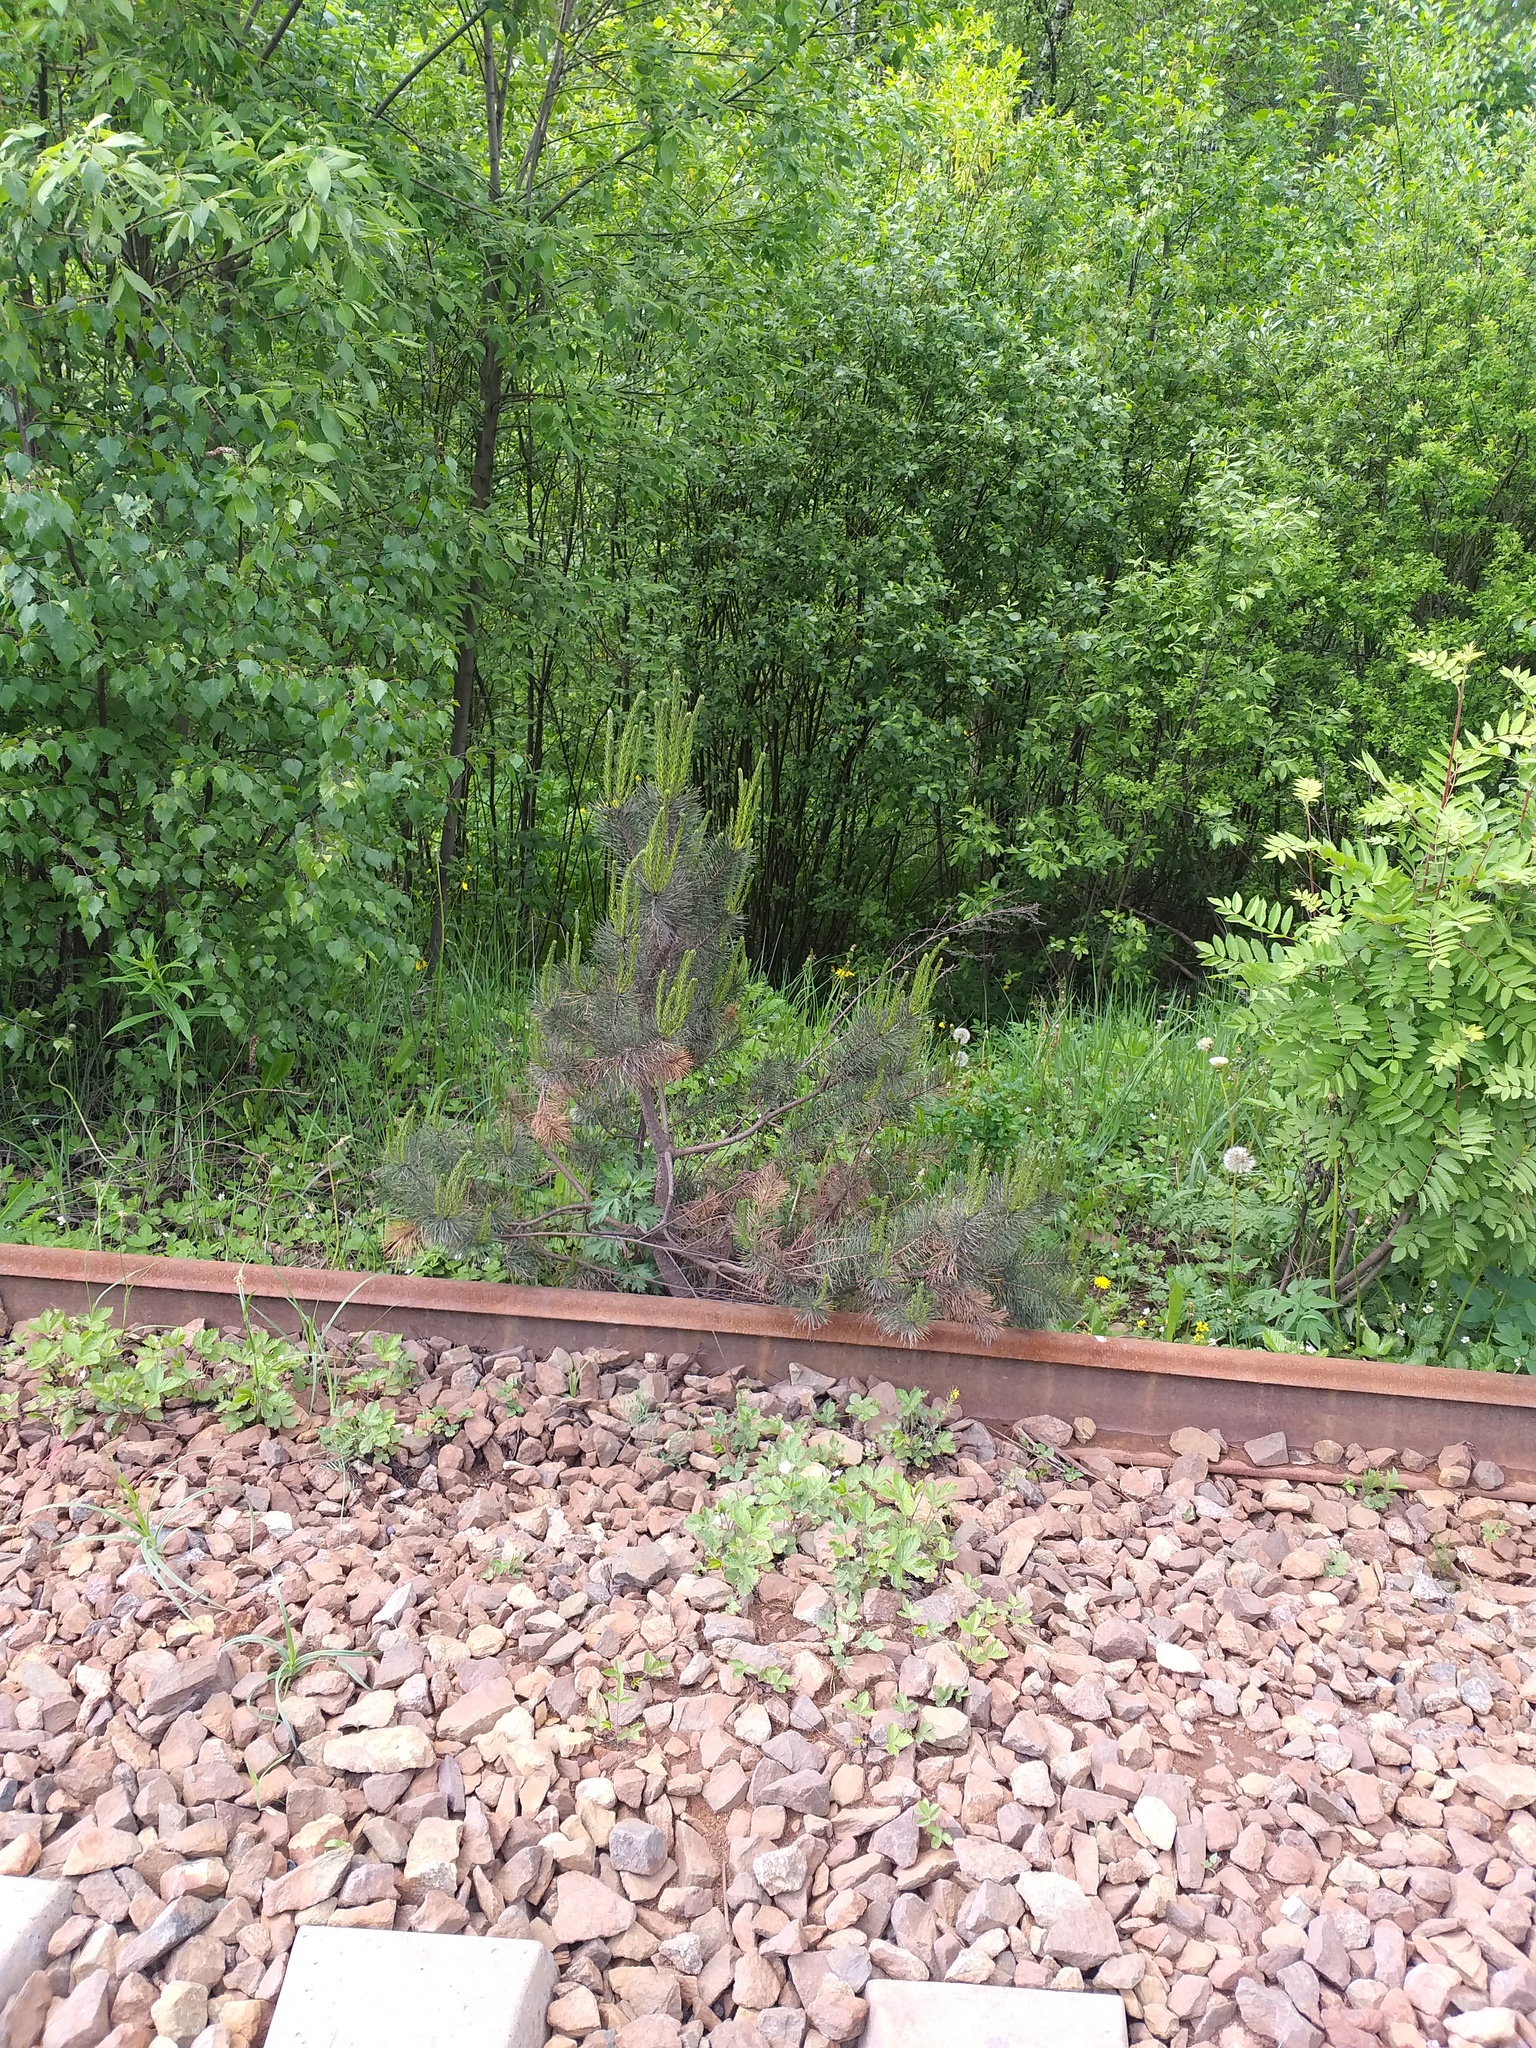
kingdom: Plantae
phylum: Tracheophyta
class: Pinopsida
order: Pinales
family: Pinaceae
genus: Pinus
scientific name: Pinus sylvestris
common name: Scots pine
